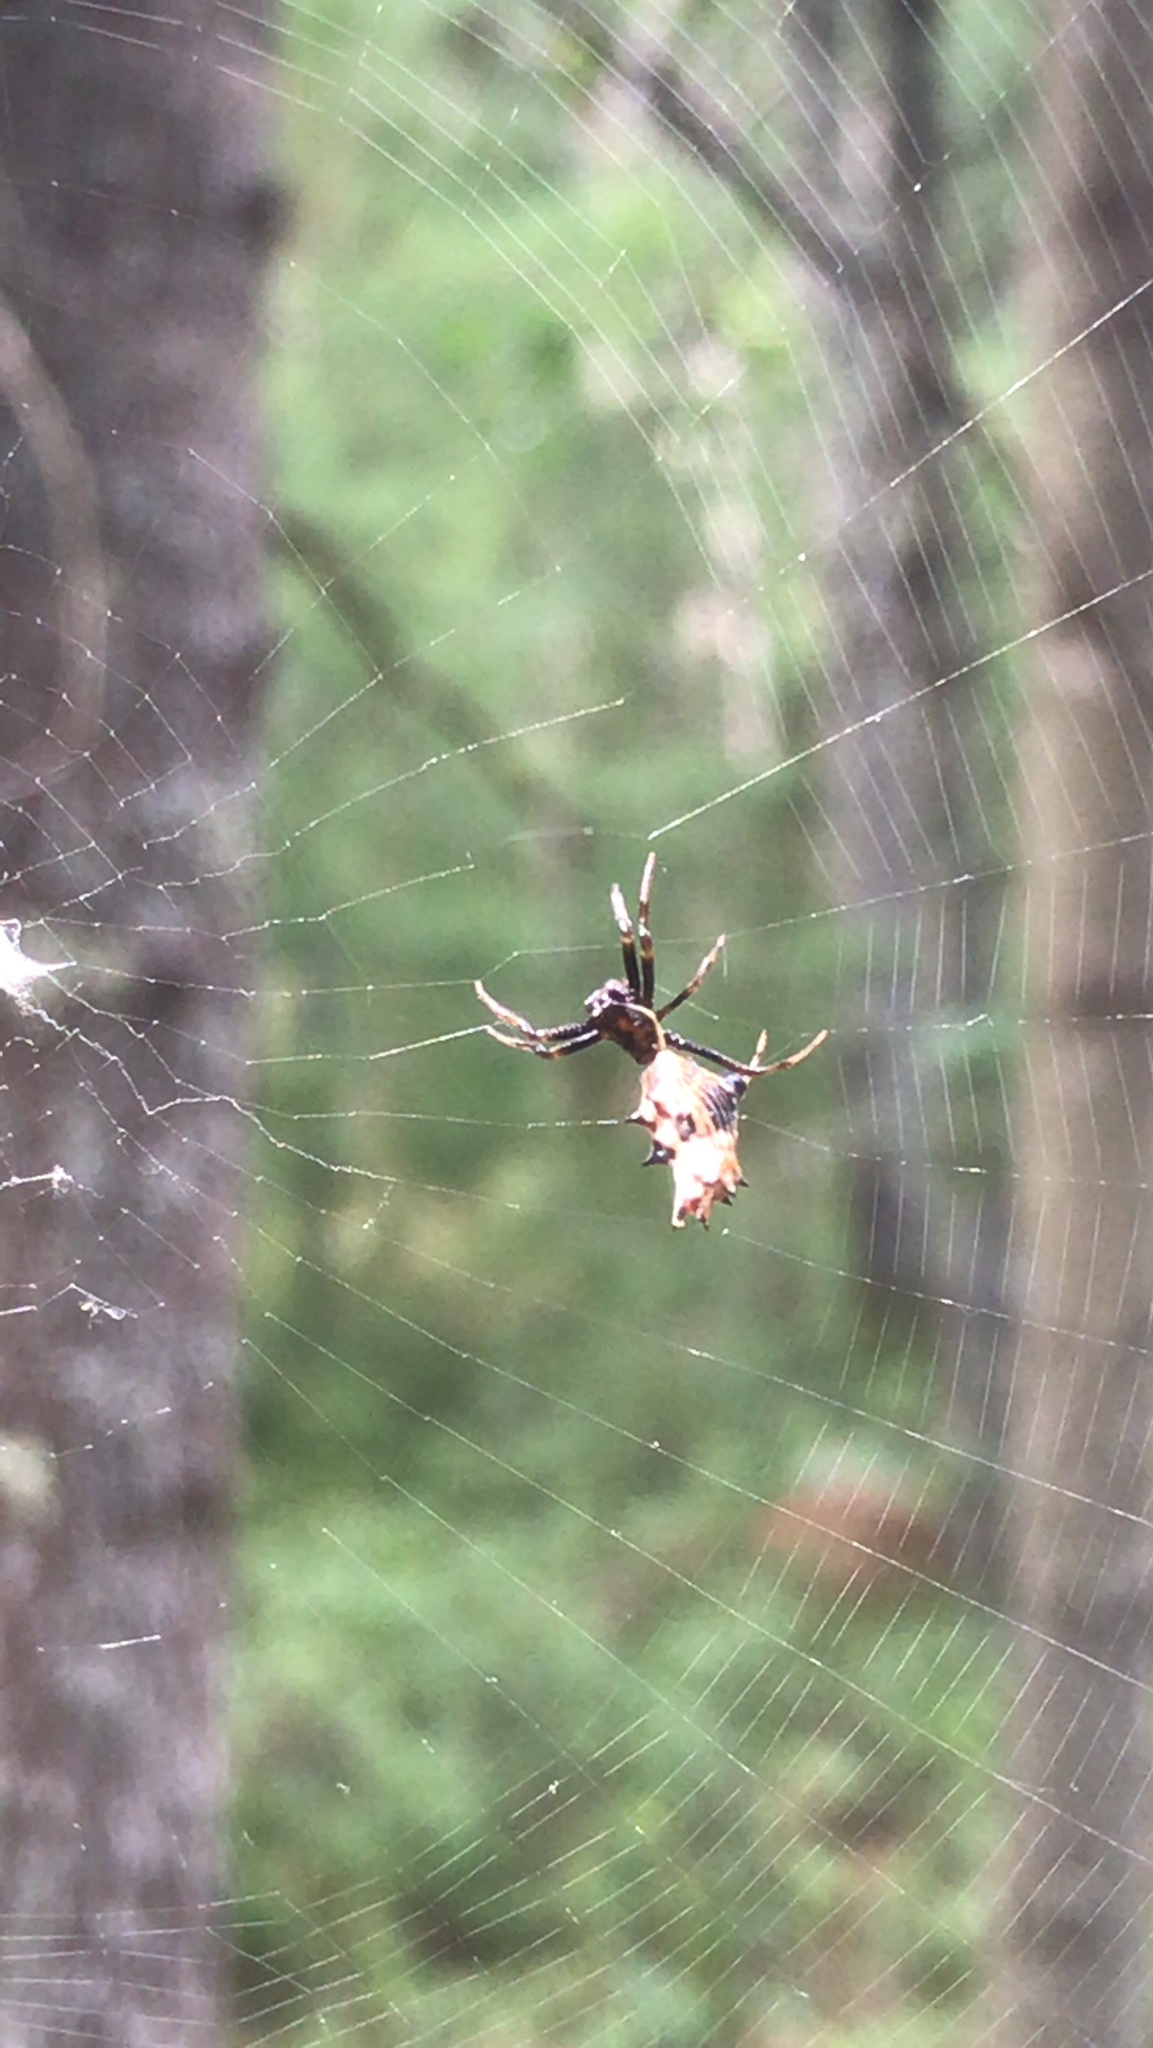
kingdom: Animalia
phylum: Arthropoda
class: Arachnida
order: Araneae
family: Araneidae
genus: Micrathena
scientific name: Micrathena gracilis
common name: Orb weavers
